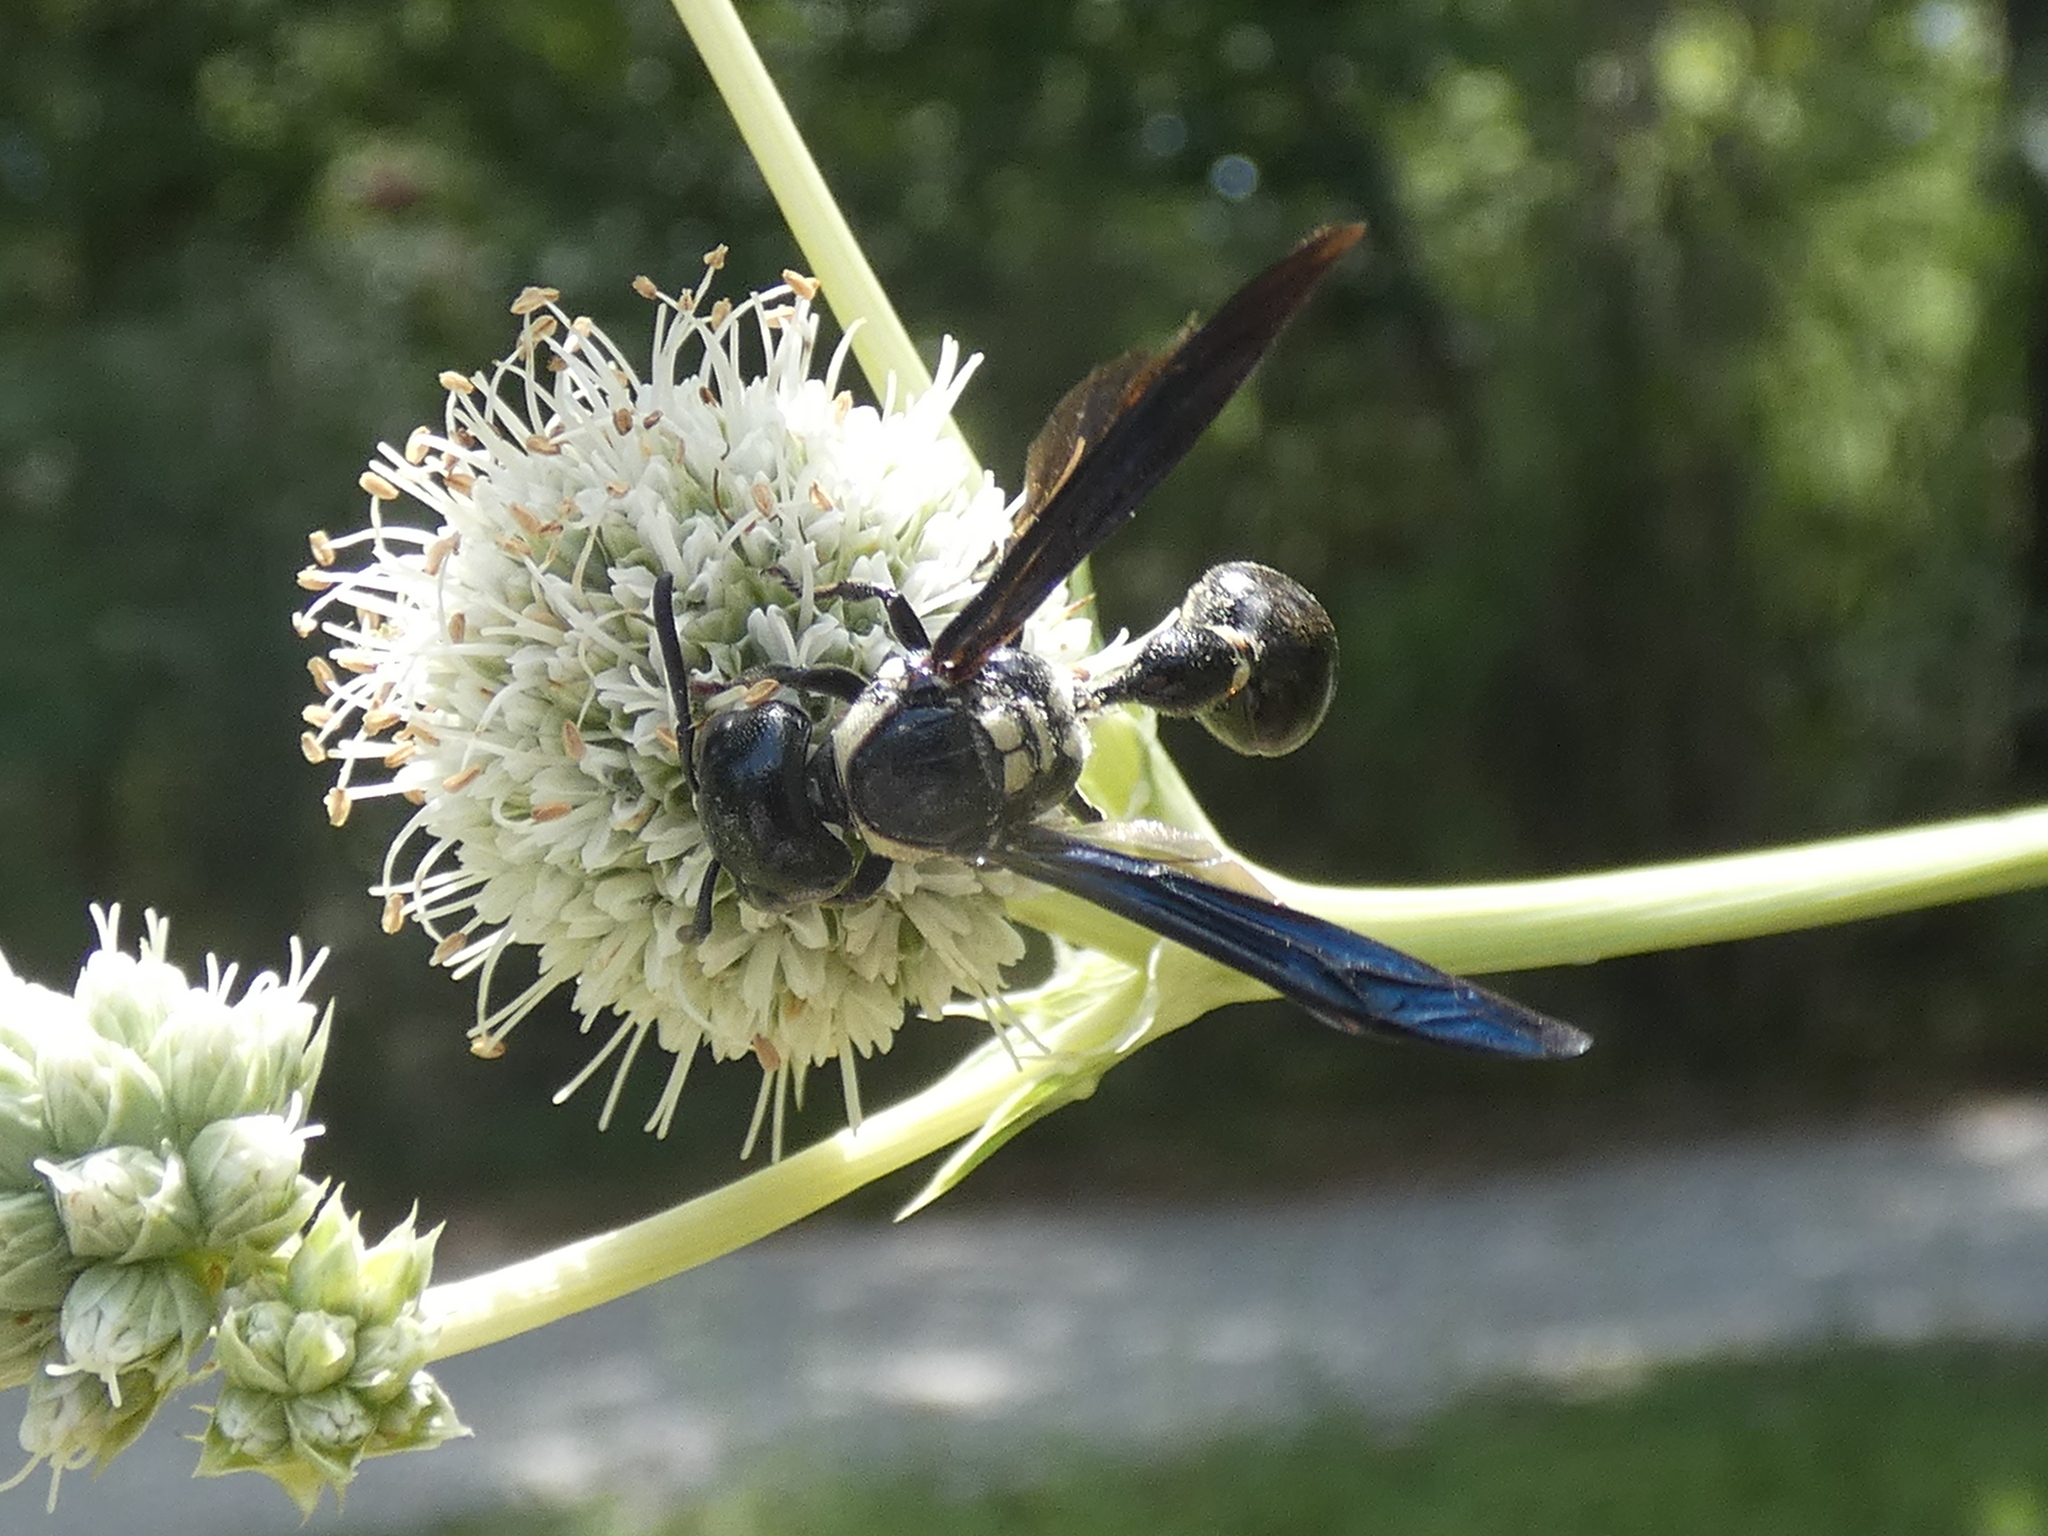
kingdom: Animalia
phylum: Arthropoda
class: Insecta
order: Hymenoptera
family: Eumenidae
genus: Zethus
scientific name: Zethus spinipes
